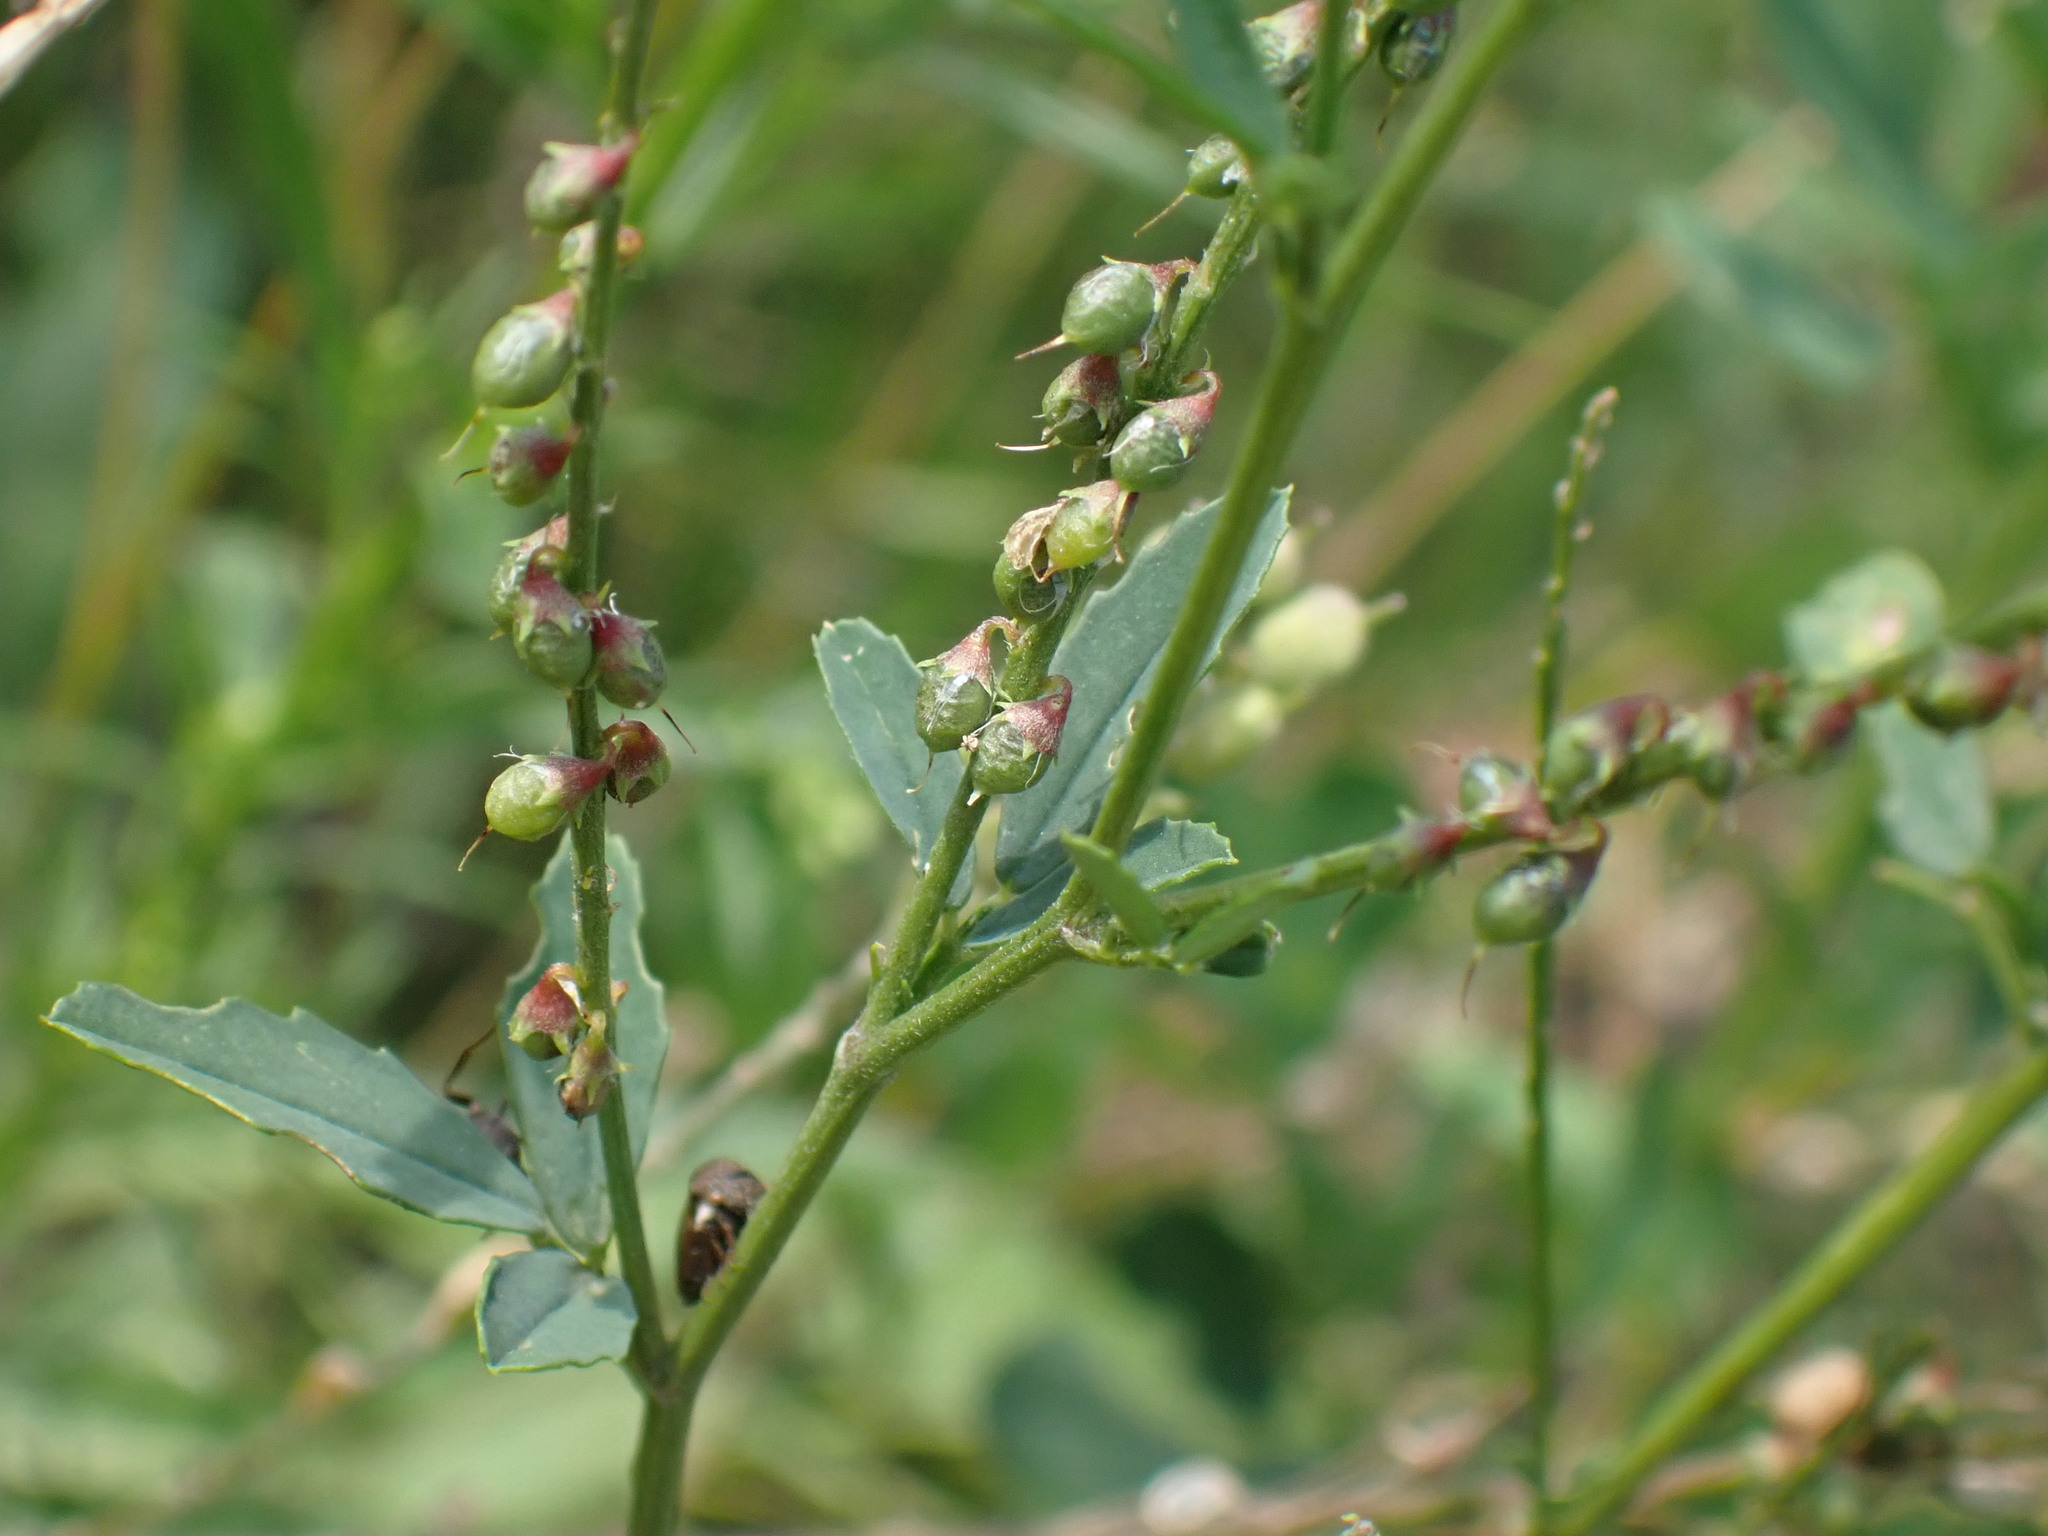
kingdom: Plantae
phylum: Tracheophyta
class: Magnoliopsida
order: Fabales
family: Fabaceae
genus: Melilotus
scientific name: Melilotus albus
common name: White melilot
